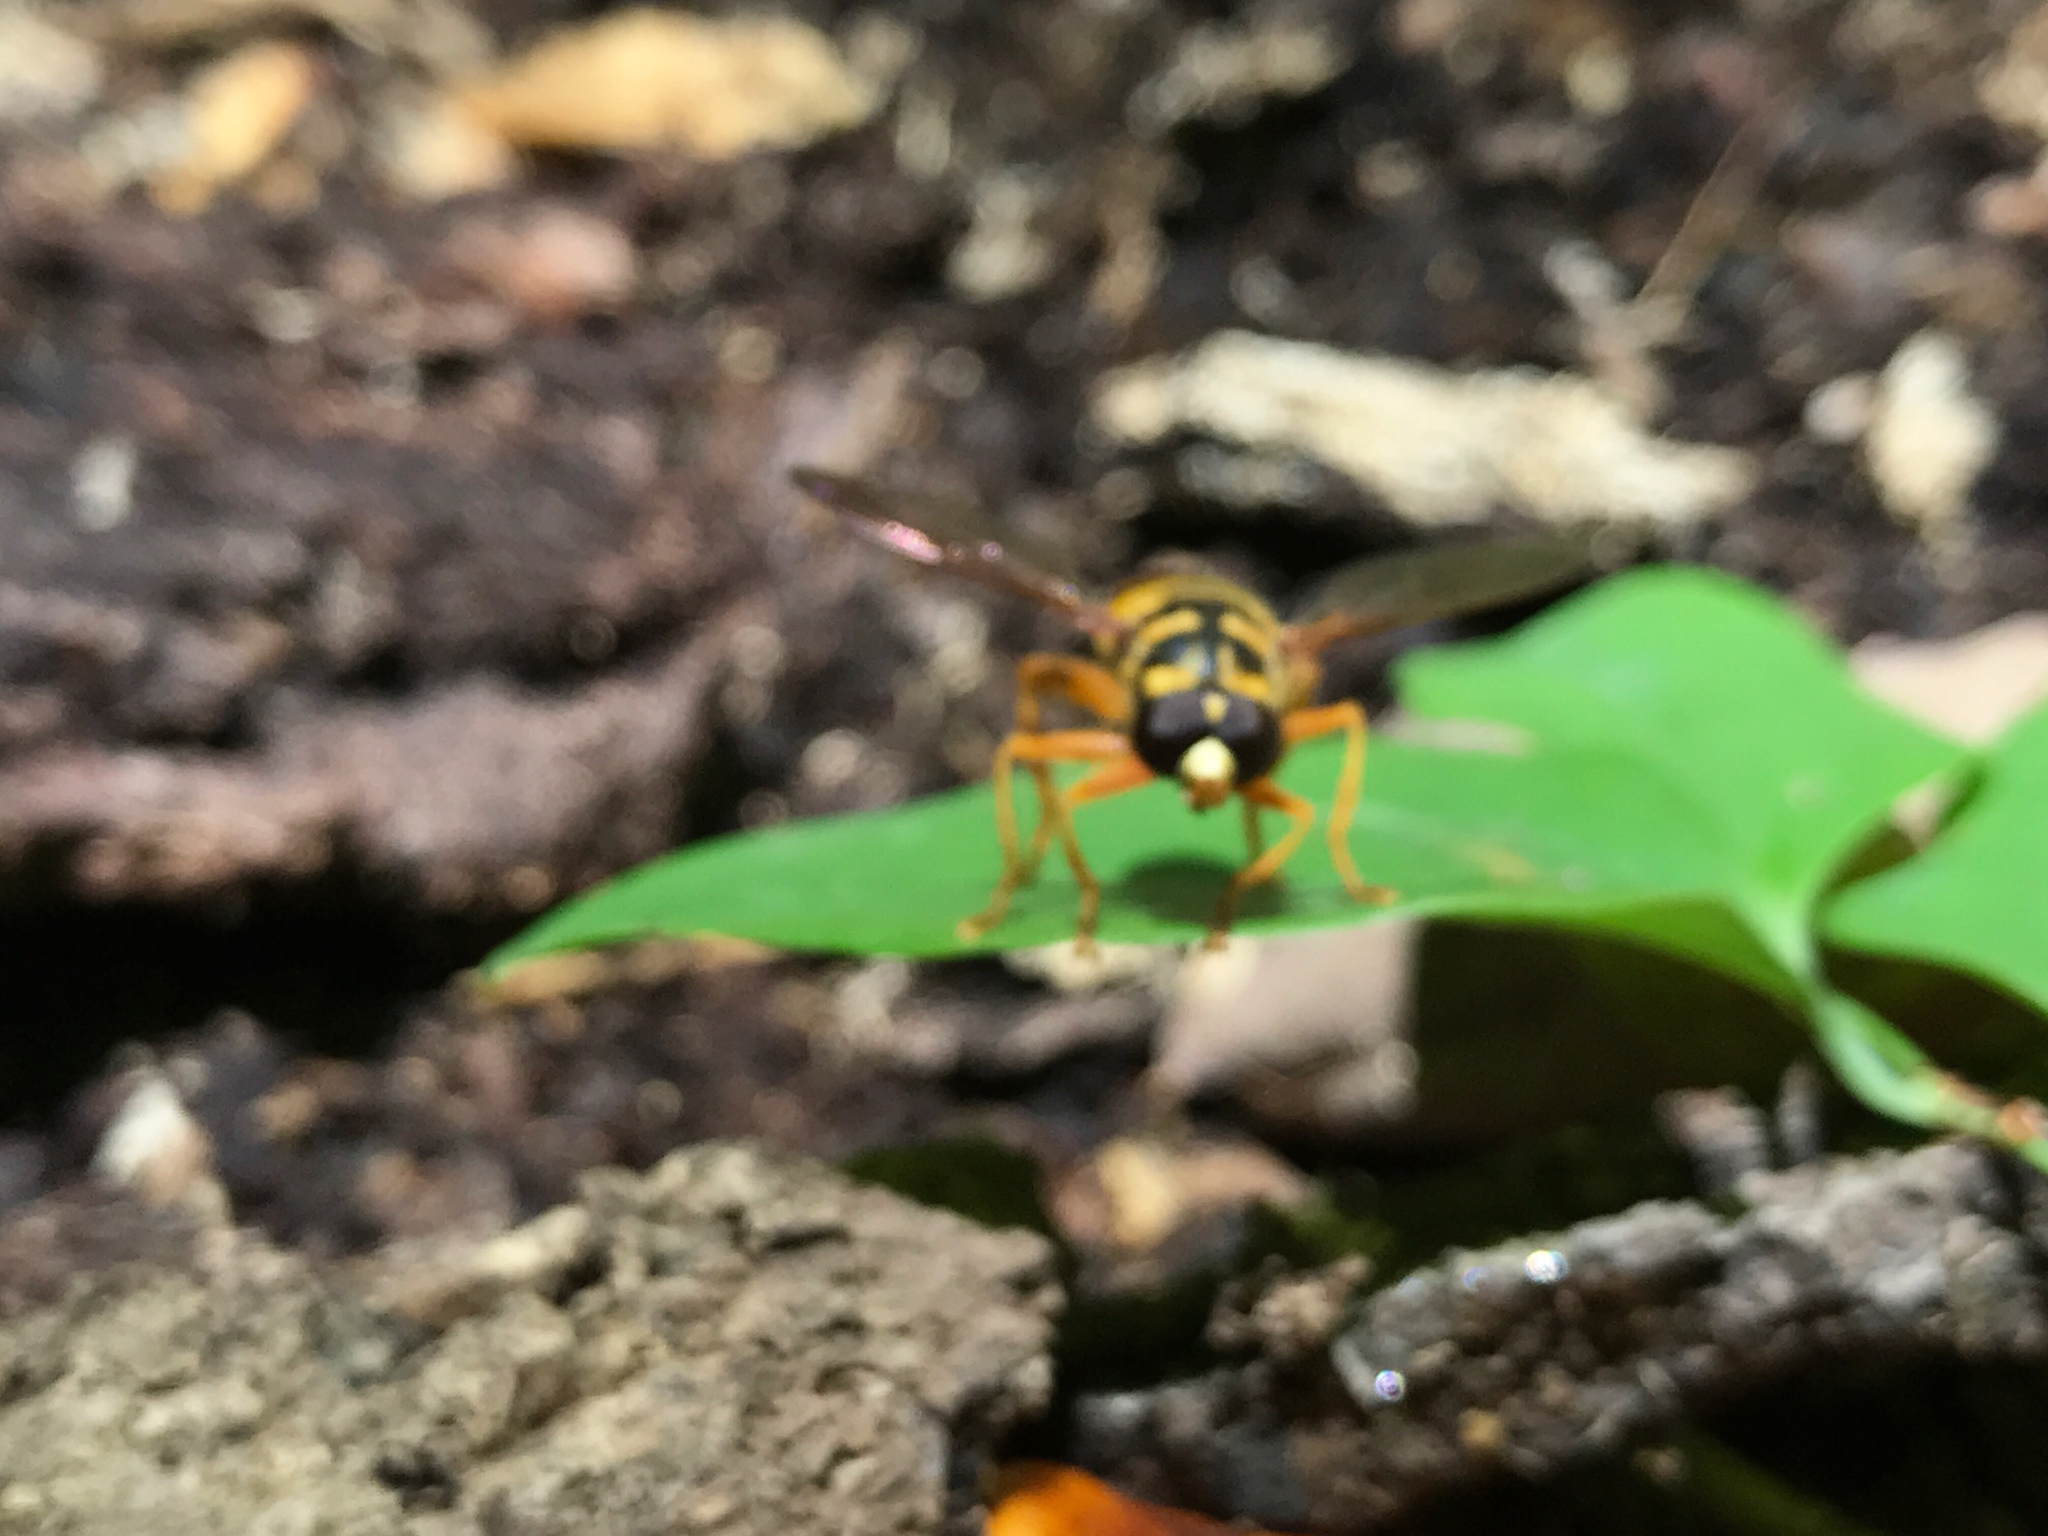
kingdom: Animalia
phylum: Arthropoda
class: Insecta
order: Diptera
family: Syrphidae
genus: Milesia
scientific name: Milesia virginiensis
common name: Virginia giant
